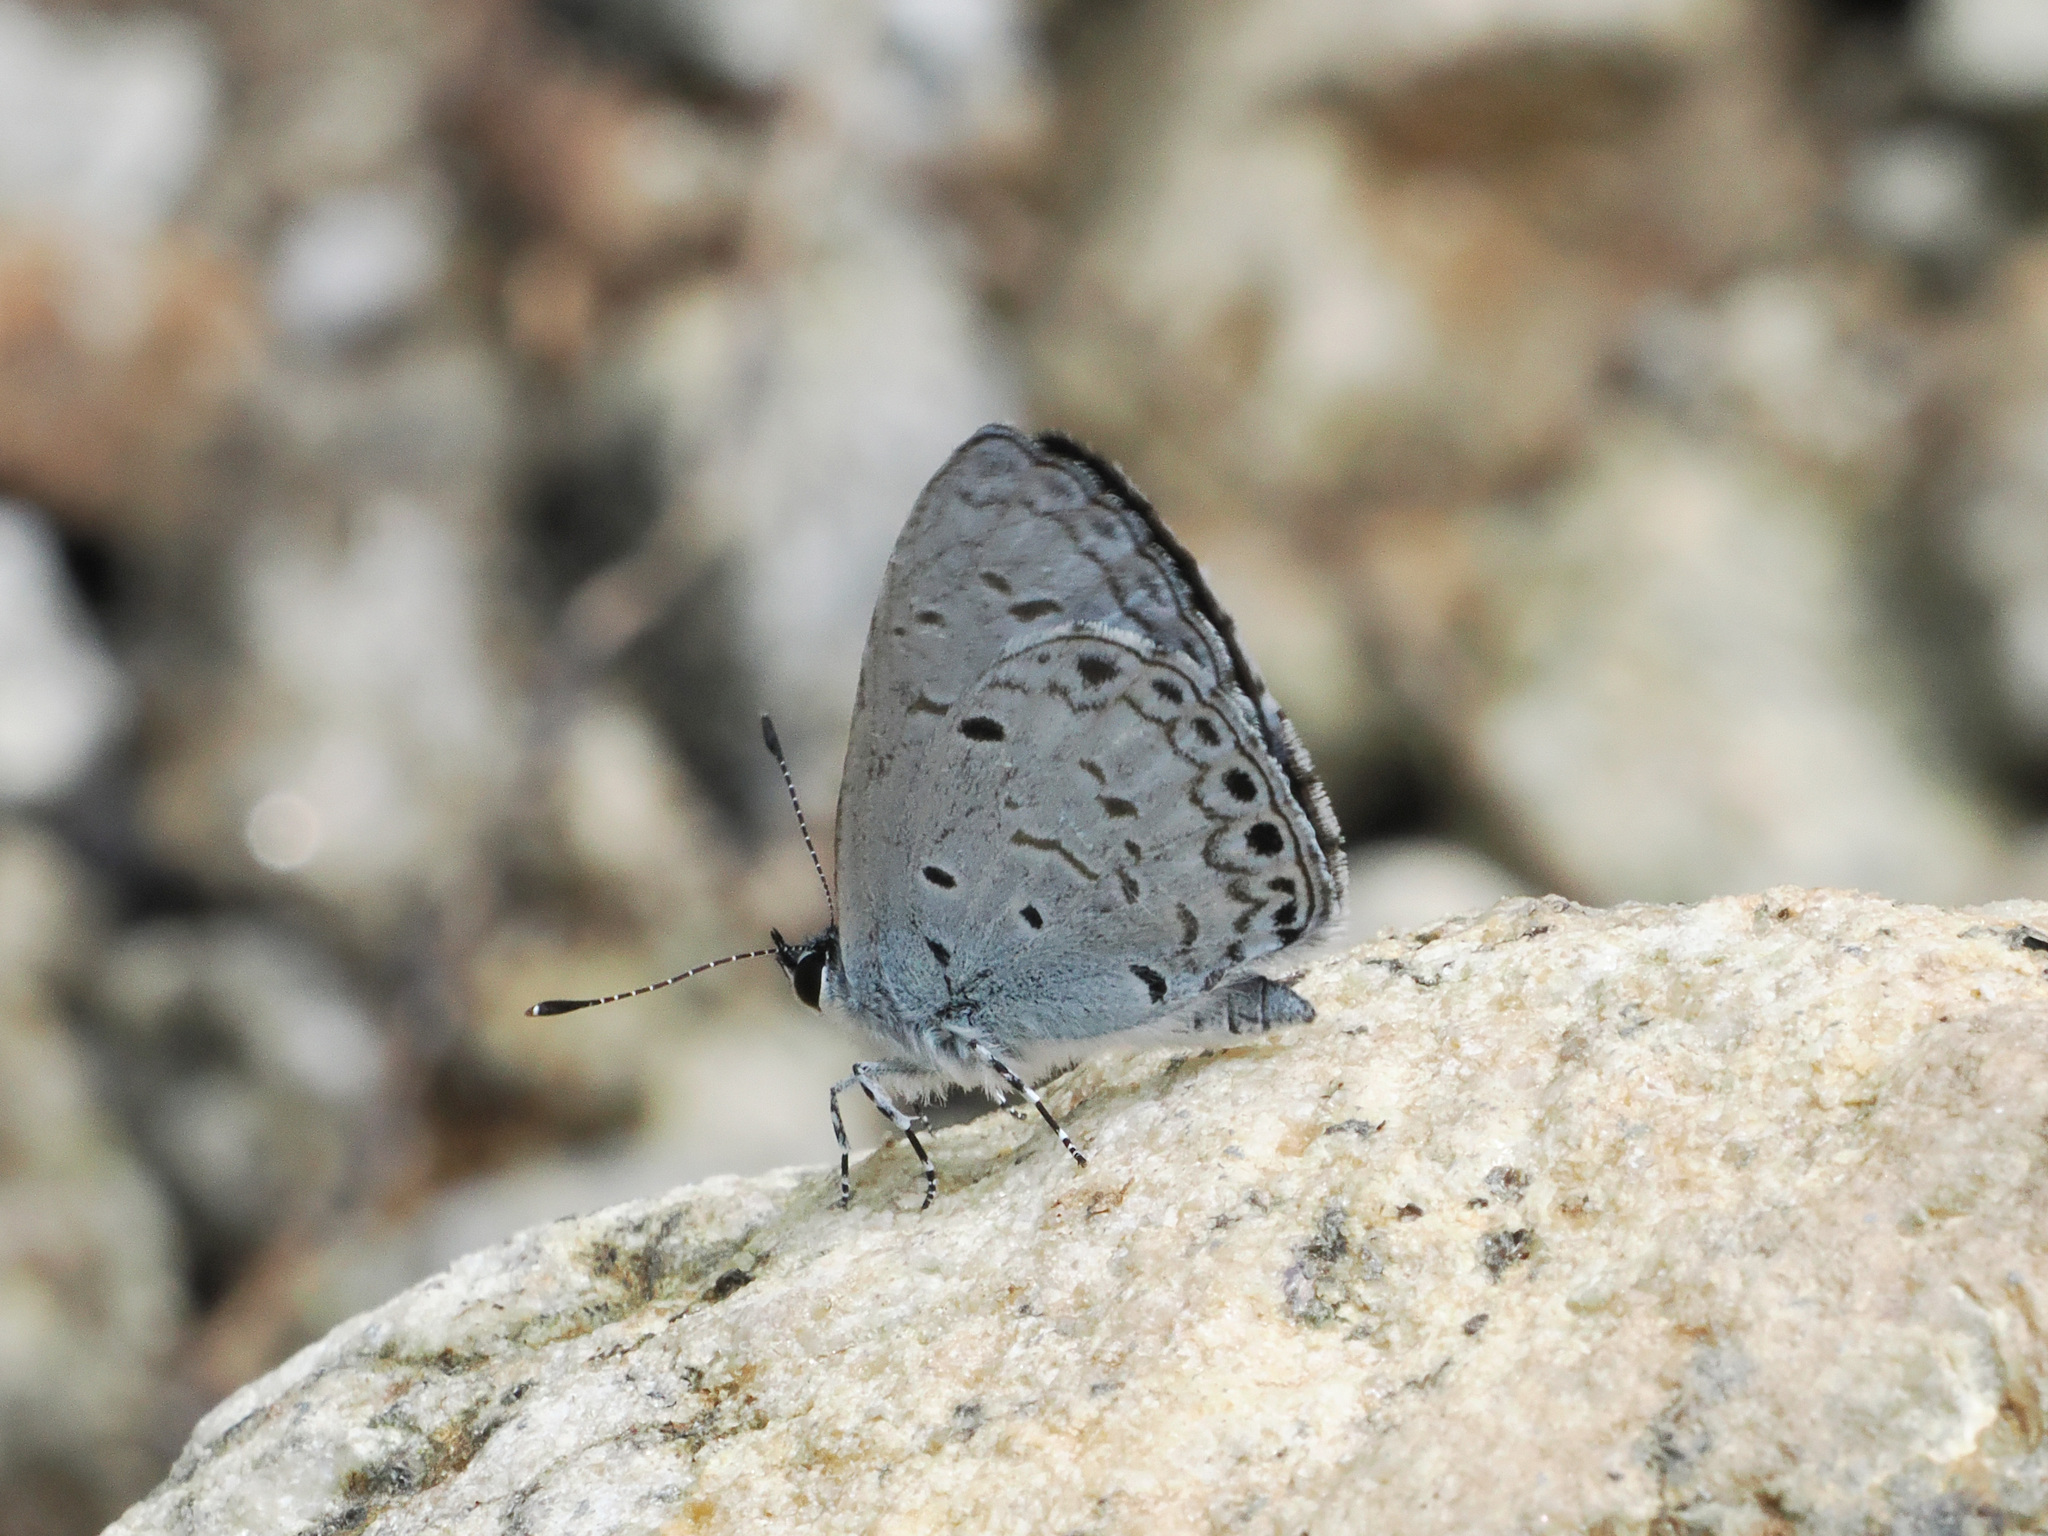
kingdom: Animalia
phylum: Arthropoda
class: Insecta
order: Lepidoptera
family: Lycaenidae
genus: Acytolepis
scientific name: Acytolepis
